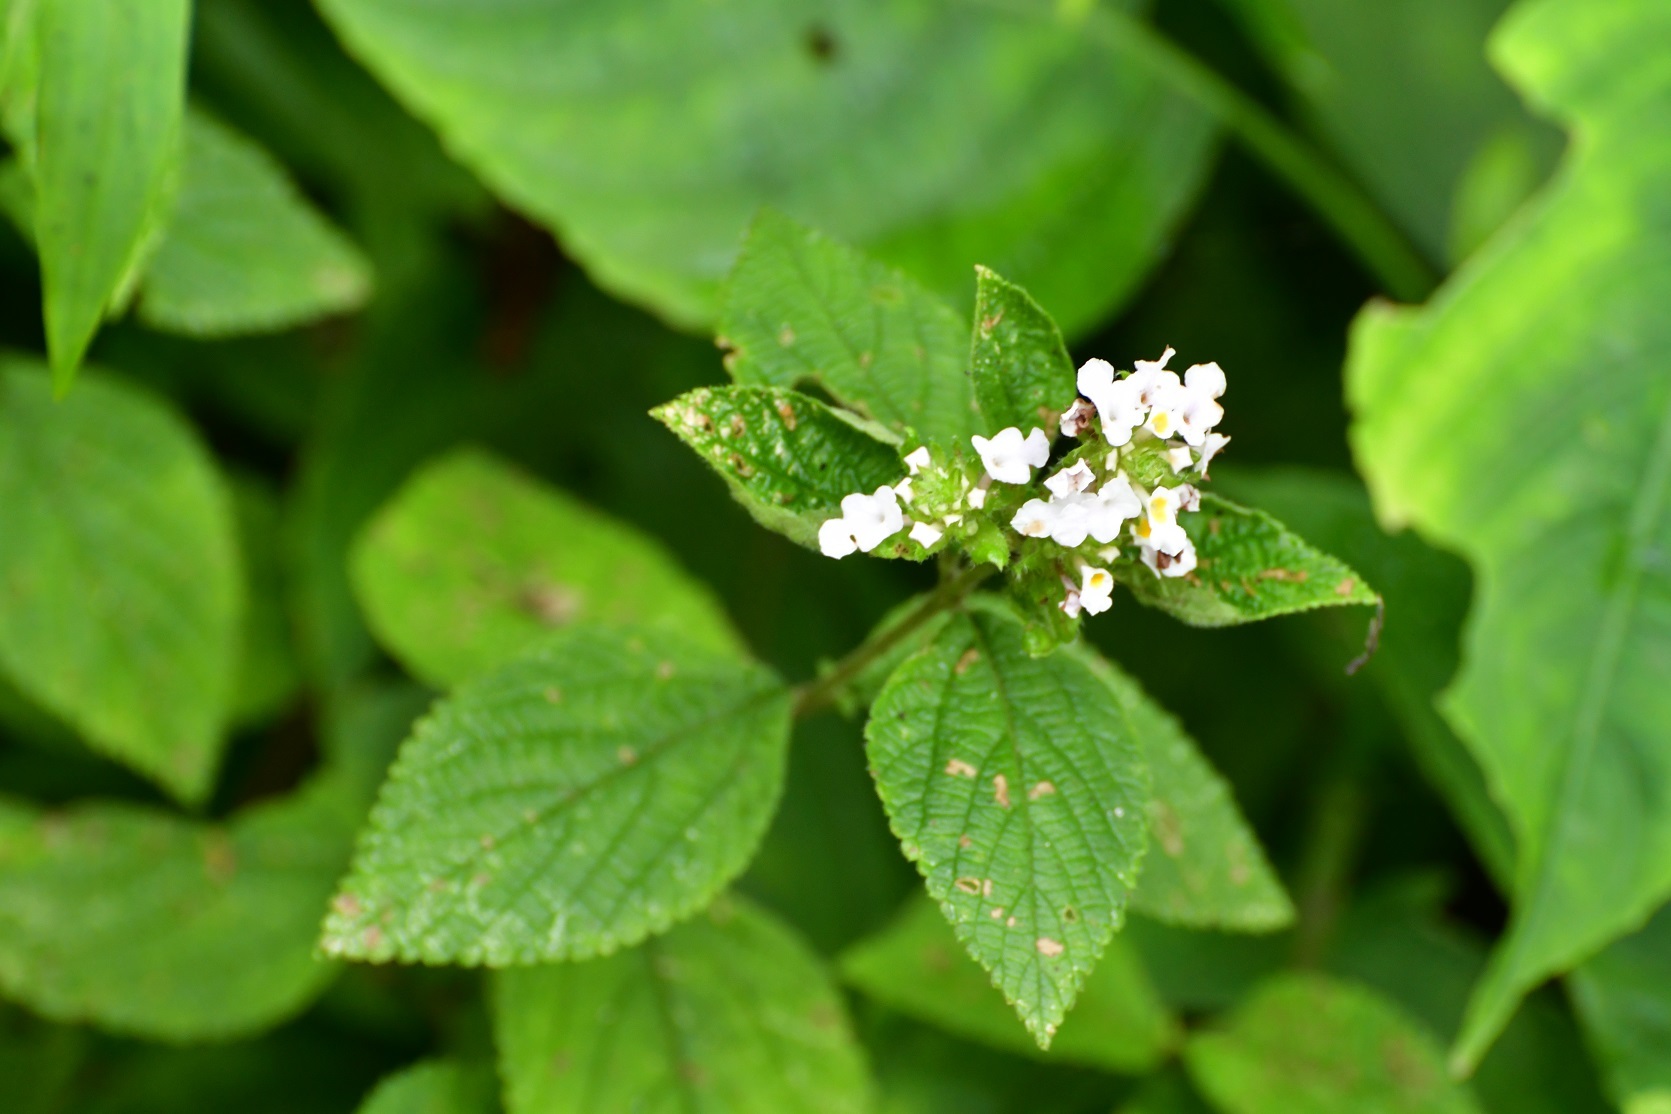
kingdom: Plantae
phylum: Tracheophyta
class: Magnoliopsida
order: Lamiales
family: Verbenaceae
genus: Lantana
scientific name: Lantana velutina
